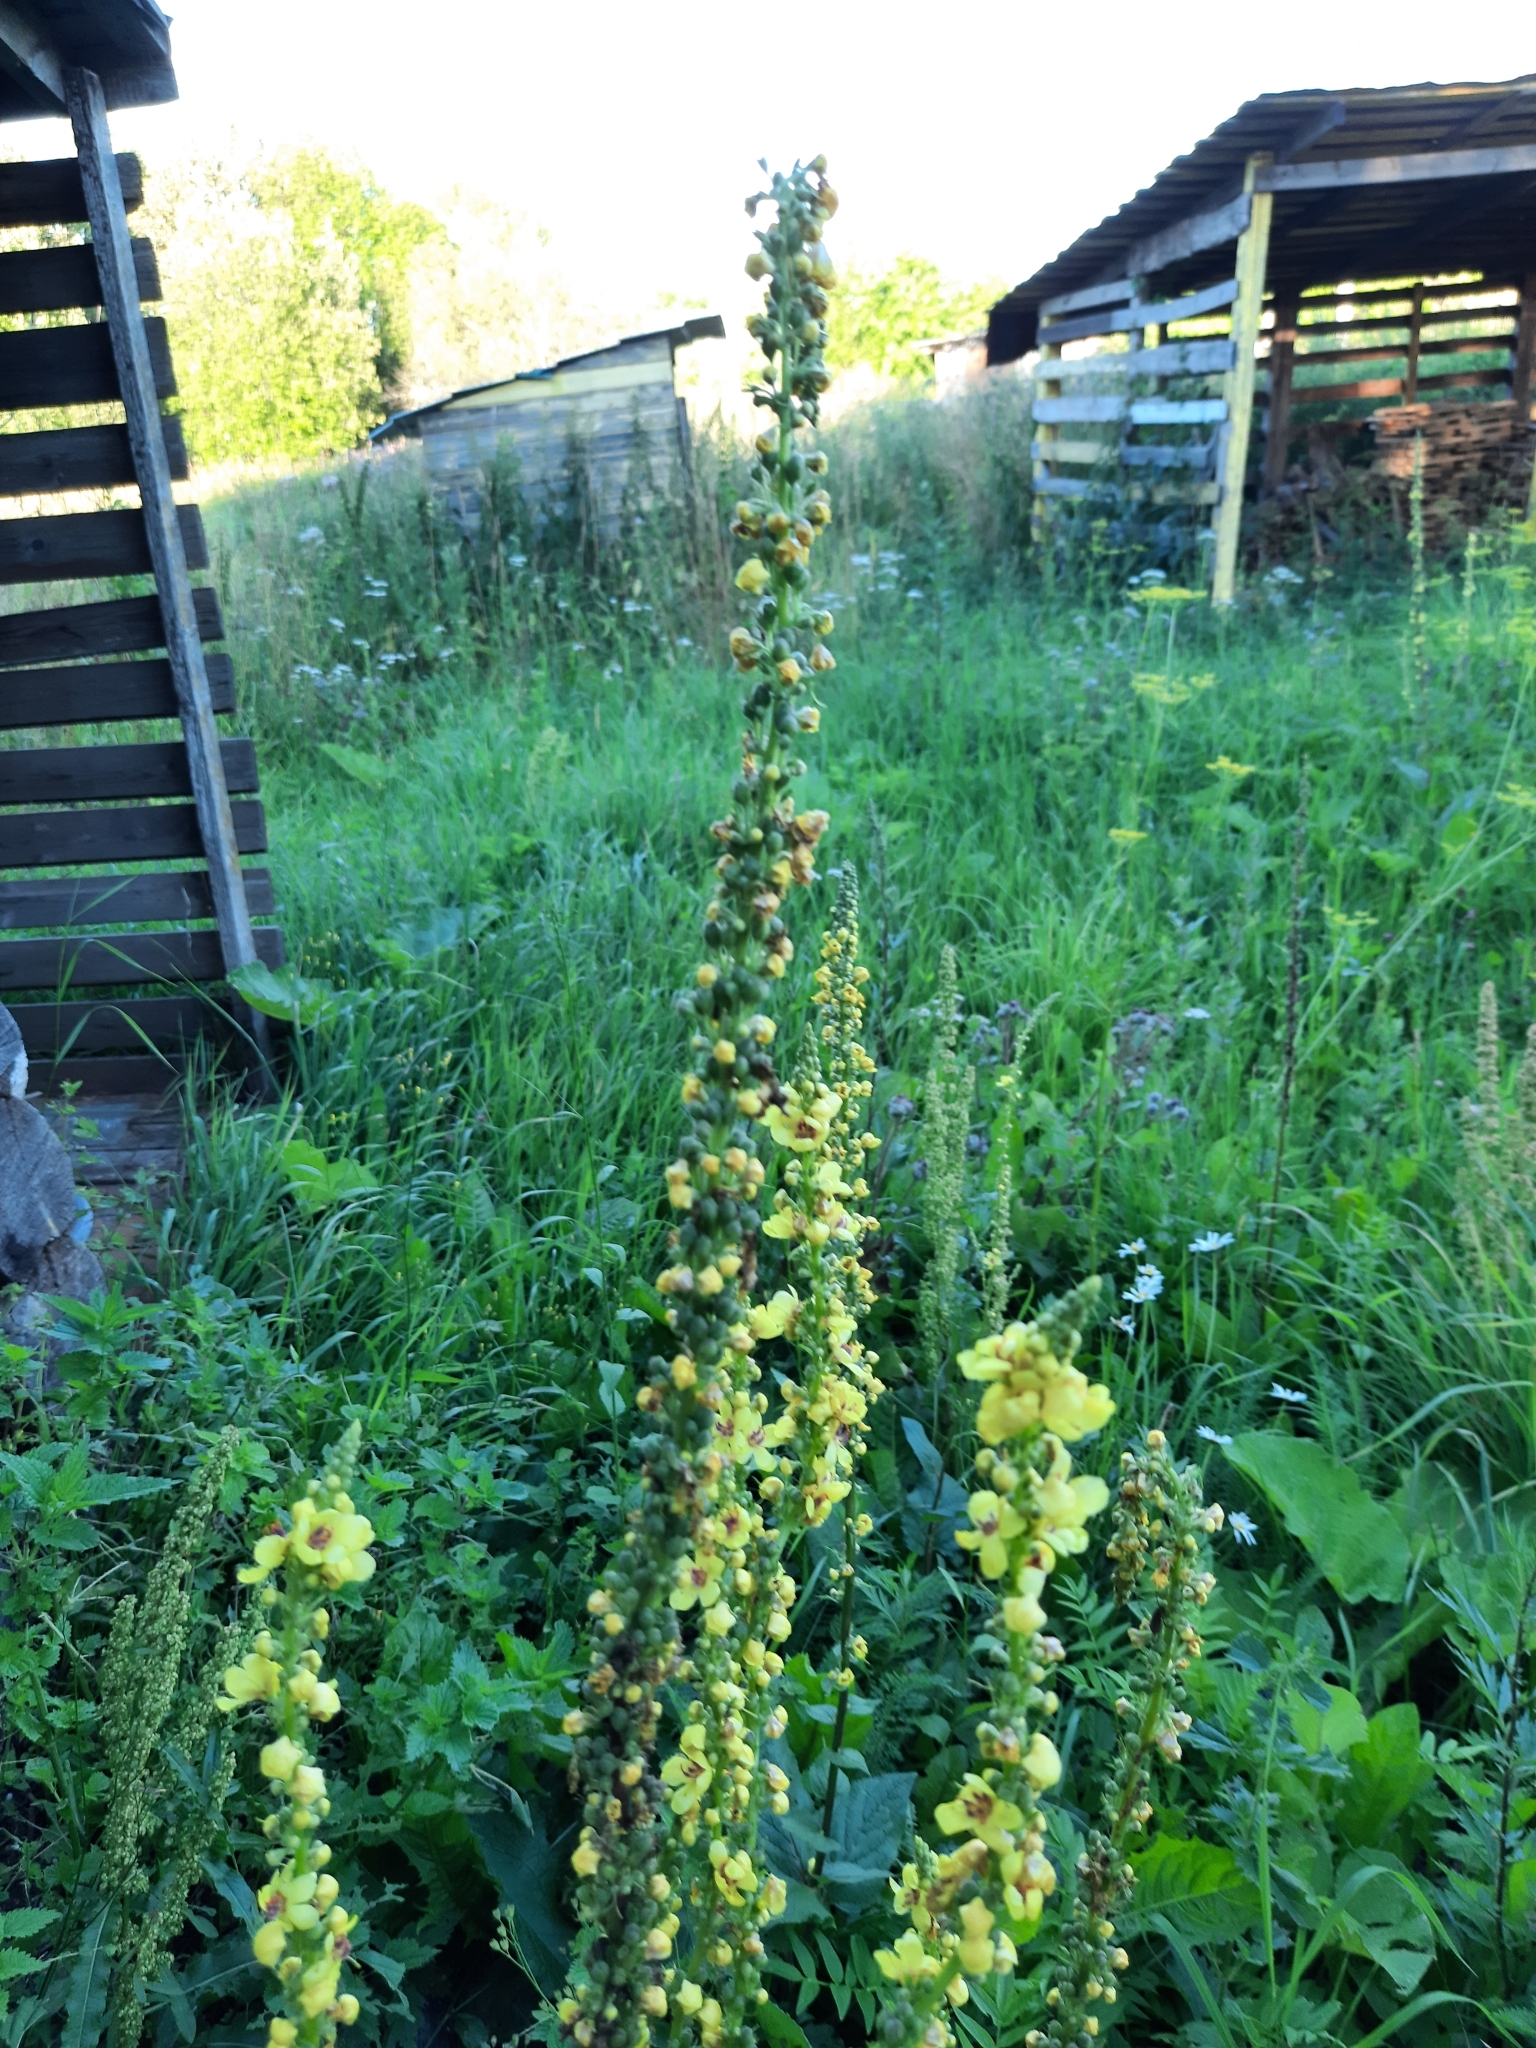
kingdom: Plantae
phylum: Tracheophyta
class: Magnoliopsida
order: Lamiales
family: Scrophulariaceae
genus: Verbascum
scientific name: Verbascum nigrum
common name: Dark mullein
